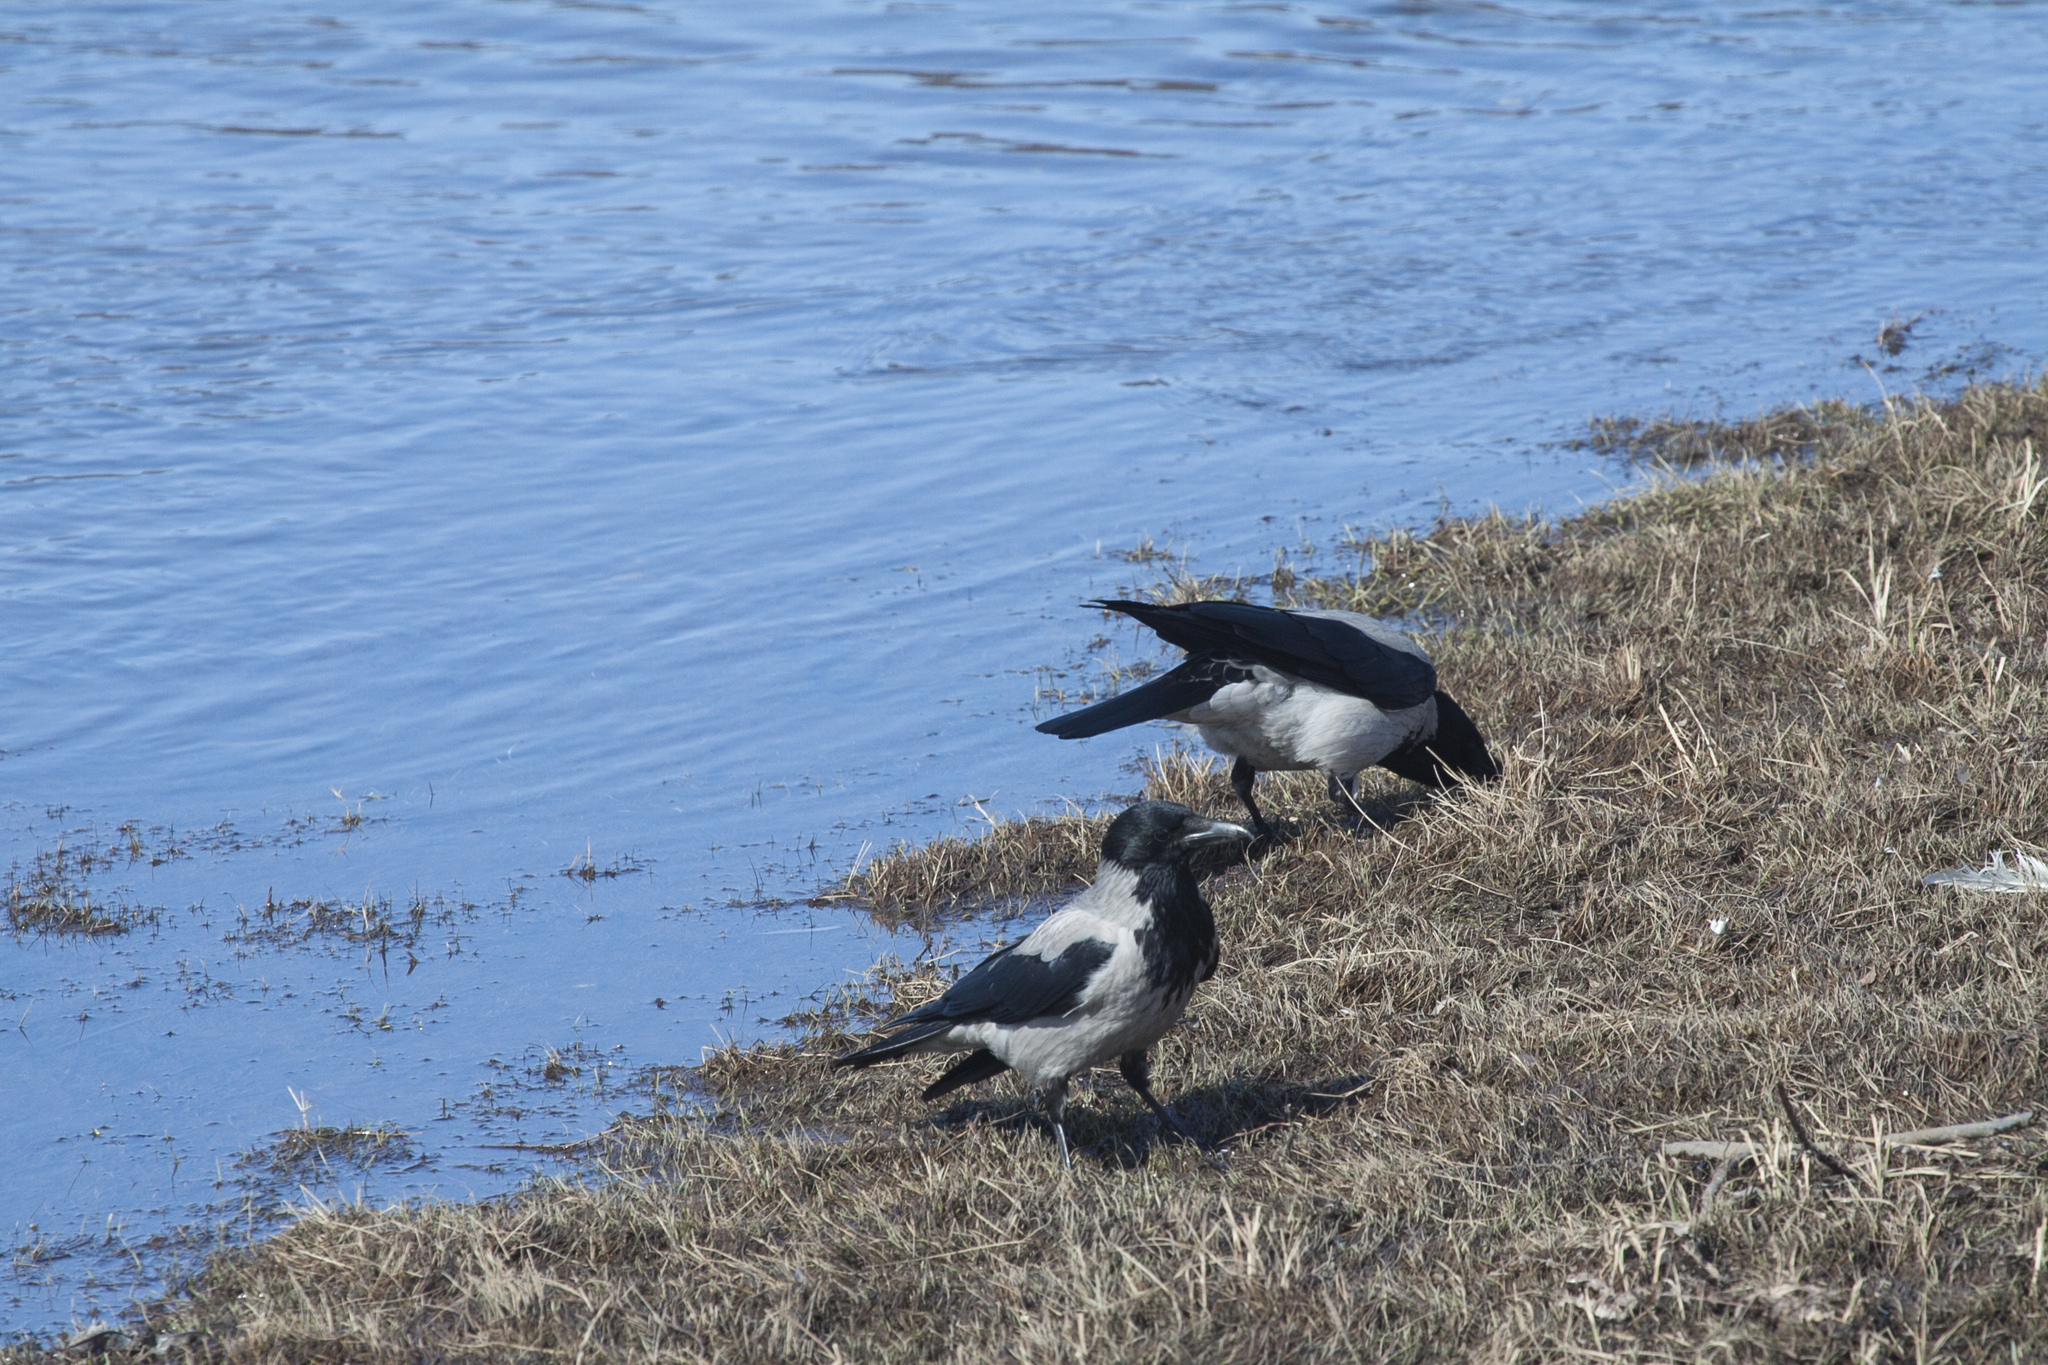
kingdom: Animalia
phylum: Chordata
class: Aves
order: Passeriformes
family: Corvidae
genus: Corvus
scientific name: Corvus cornix
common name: Hooded crow
